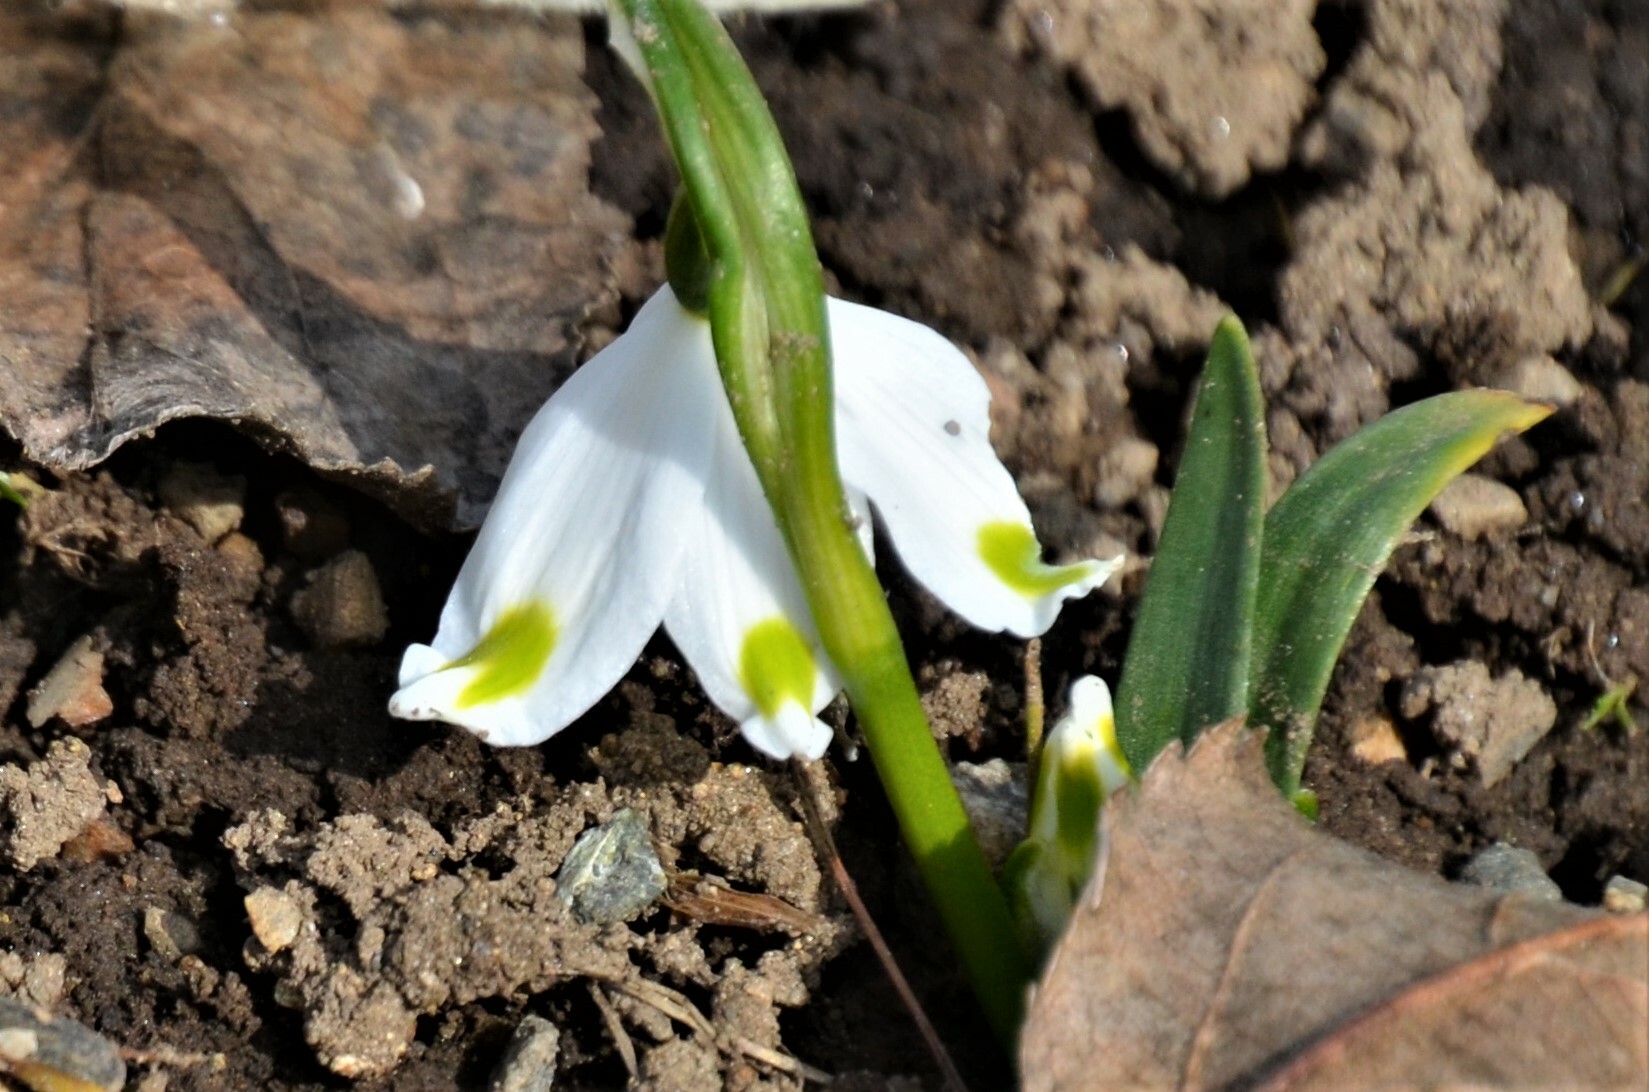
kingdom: Plantae
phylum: Tracheophyta
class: Liliopsida
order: Asparagales
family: Amaryllidaceae
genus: Leucojum
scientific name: Leucojum vernum
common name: Spring snowflake
